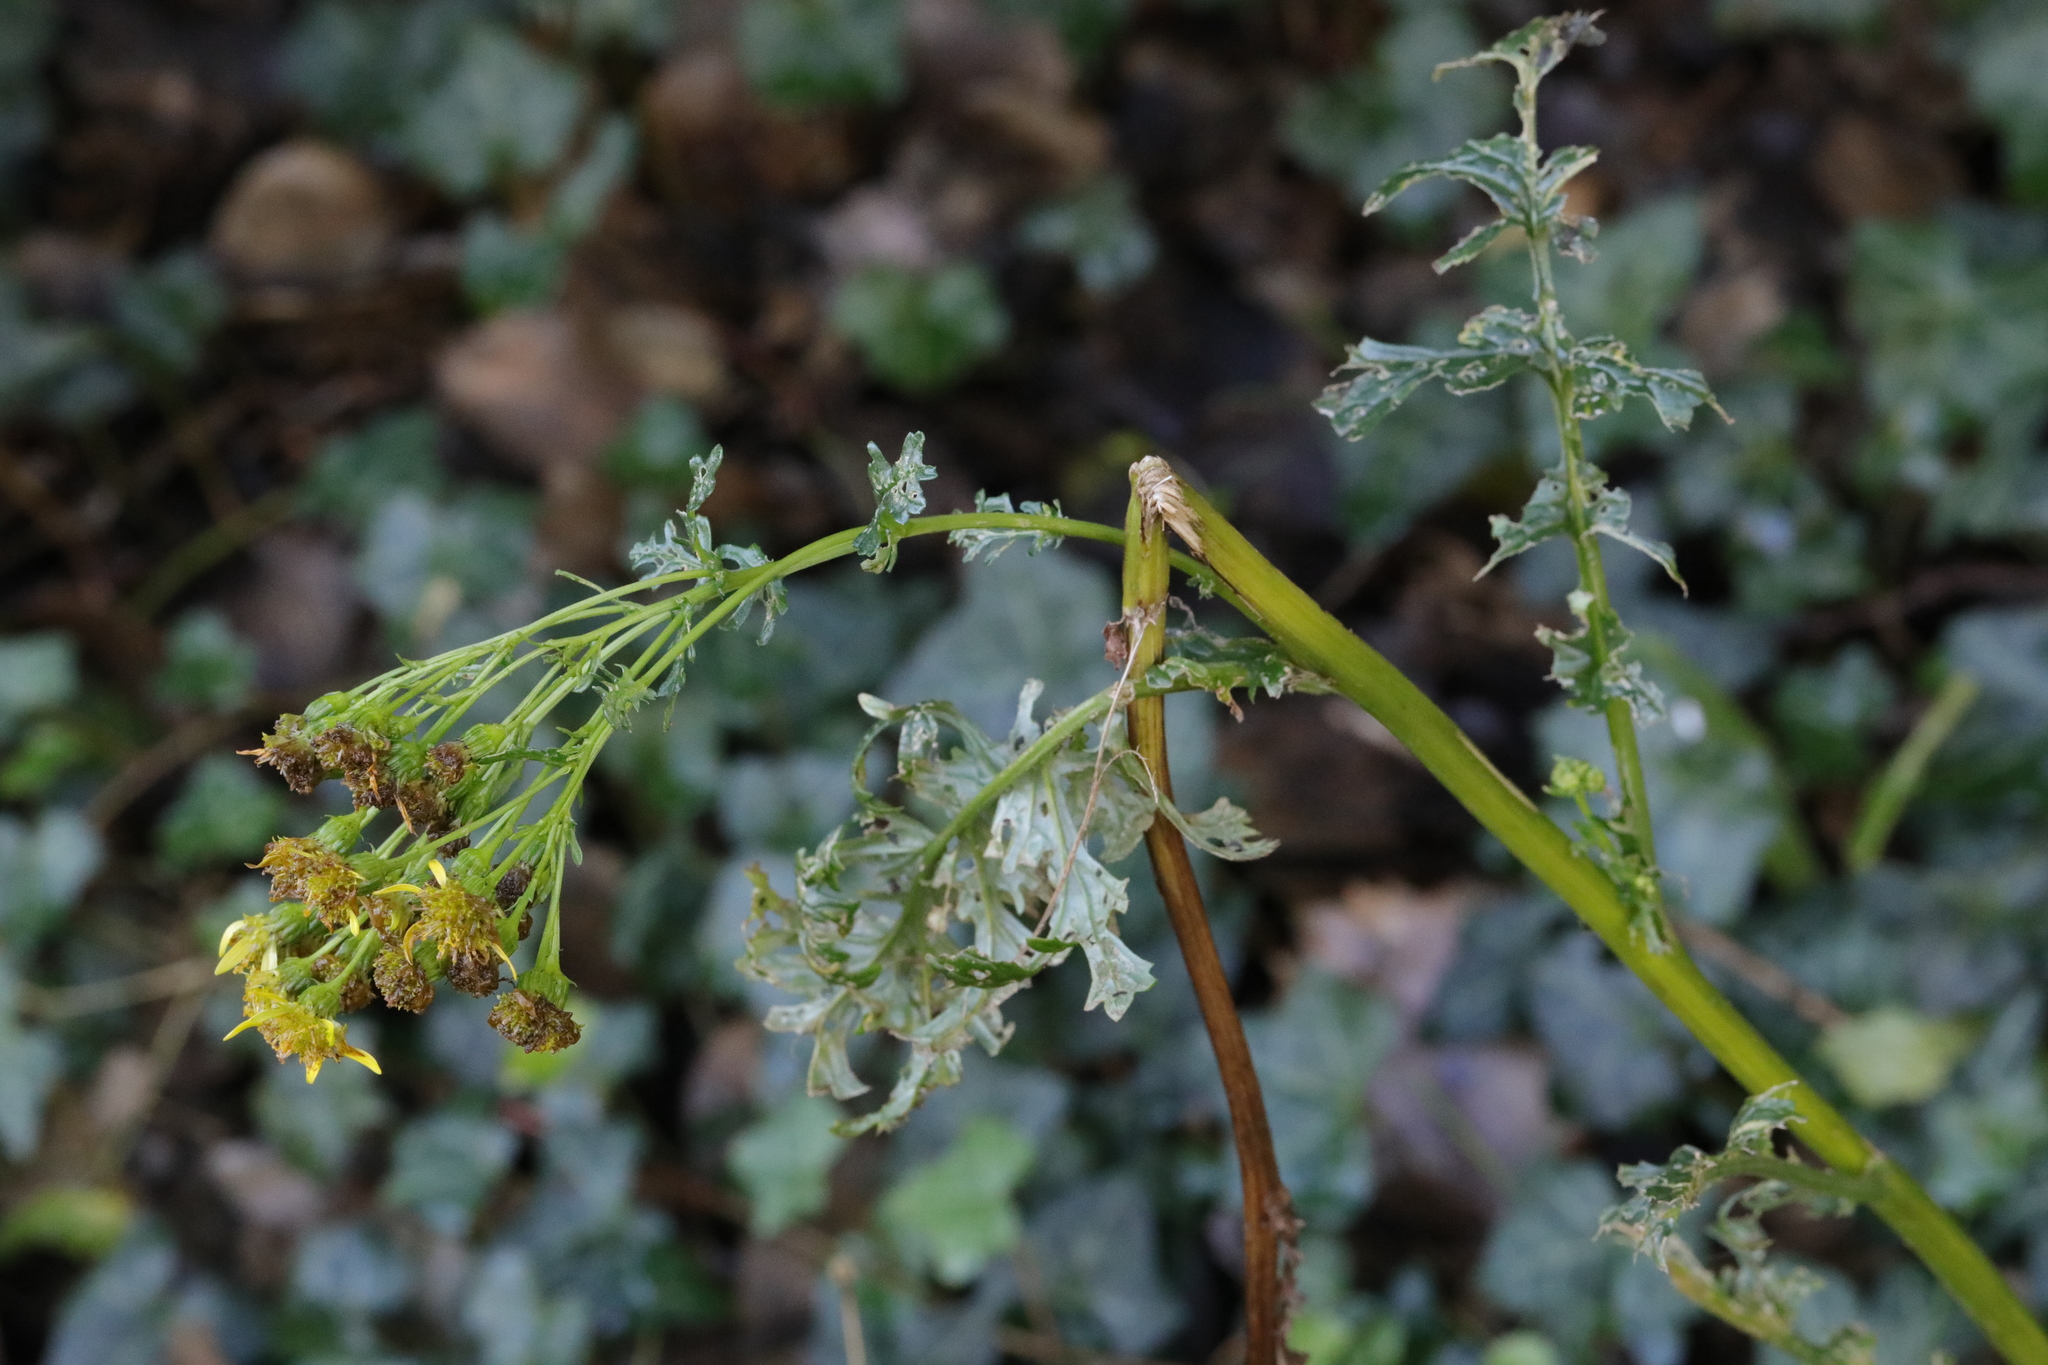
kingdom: Plantae
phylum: Tracheophyta
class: Magnoliopsida
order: Asterales
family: Asteraceae
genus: Jacobaea
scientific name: Jacobaea vulgaris
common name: Stinking willie
